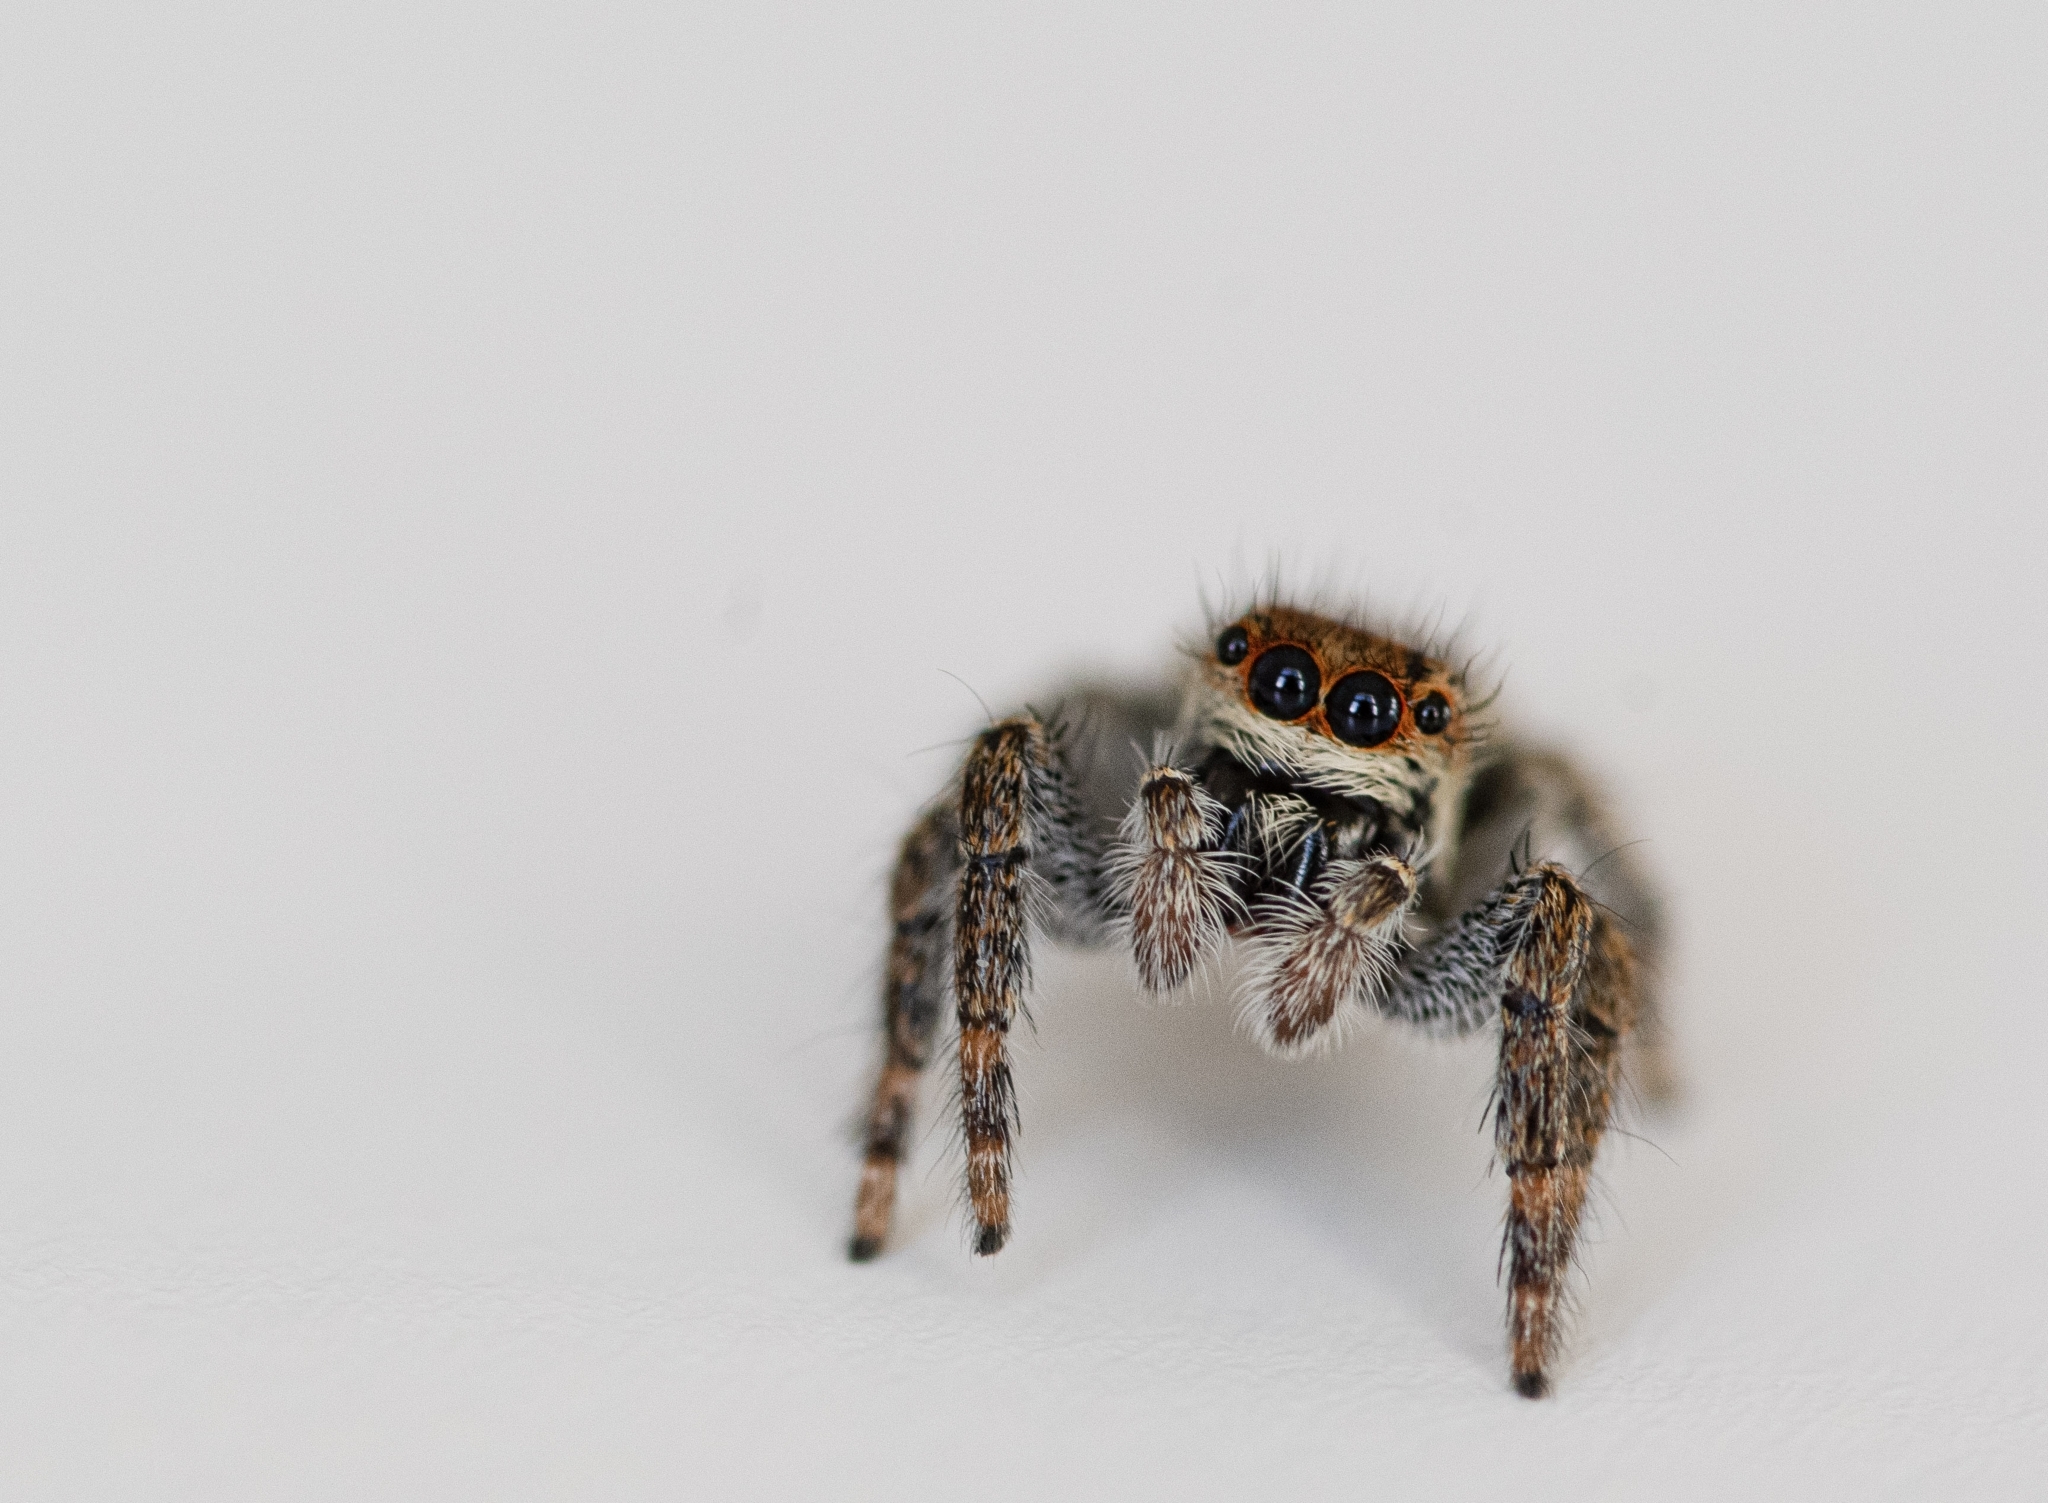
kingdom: Animalia
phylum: Arthropoda
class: Arachnida
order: Araneae
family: Salticidae
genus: Carrhotus
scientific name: Carrhotus xanthogramma
